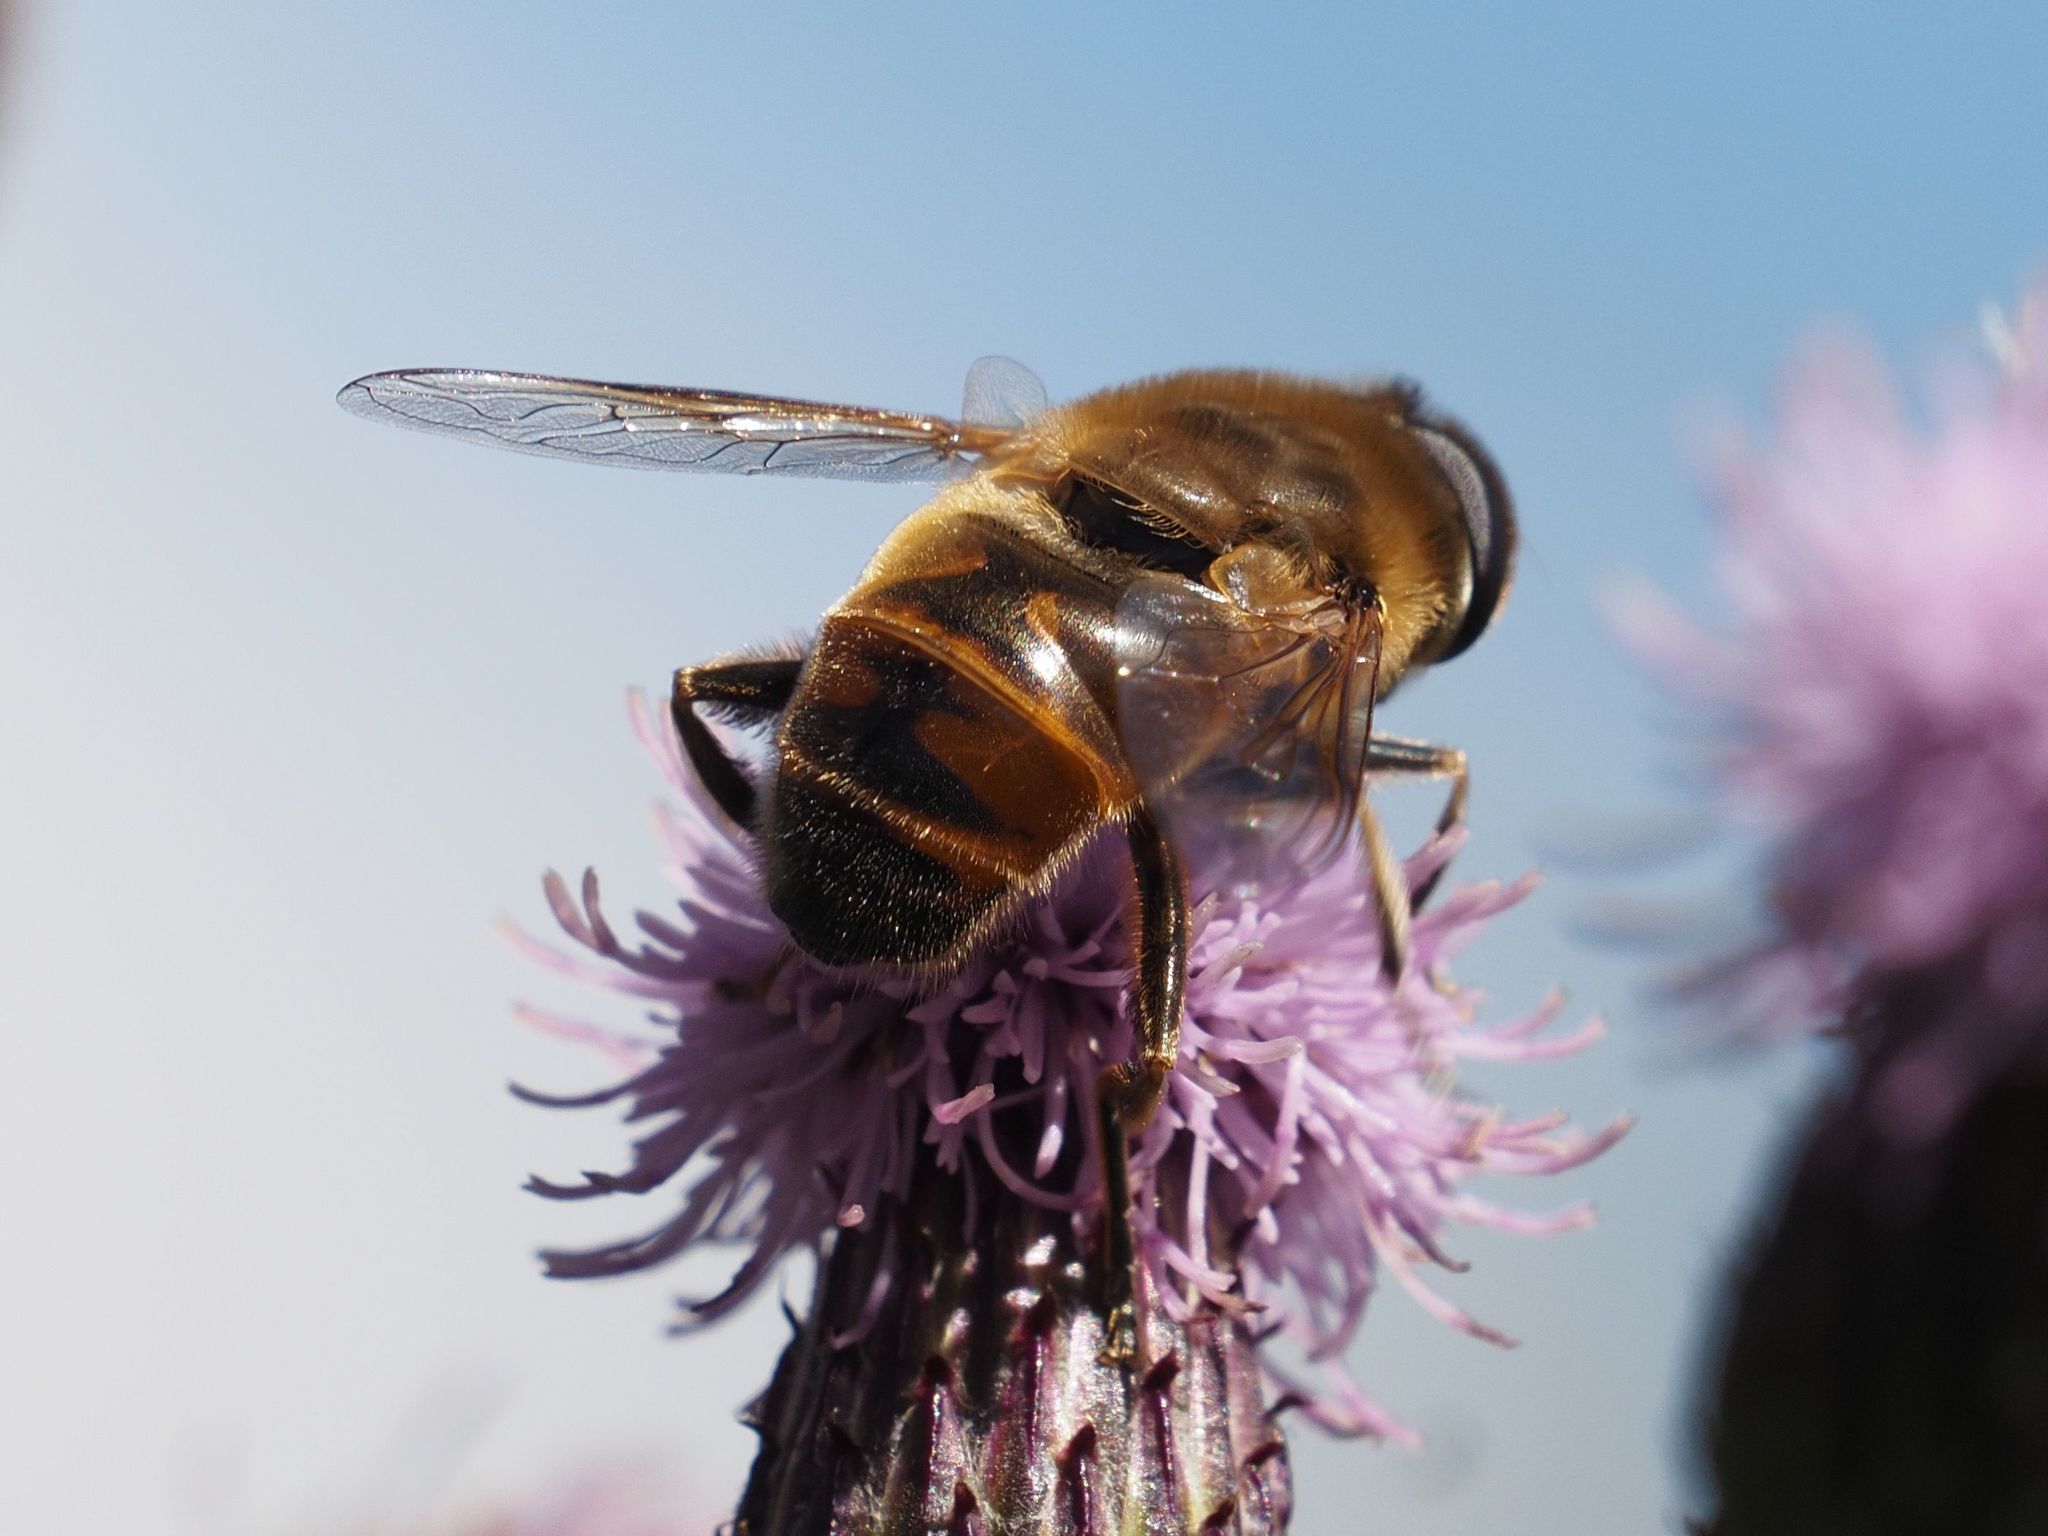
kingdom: Animalia
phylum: Arthropoda
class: Insecta
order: Diptera
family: Syrphidae
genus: Eristalis
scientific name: Eristalis tenax
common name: Drone fly
